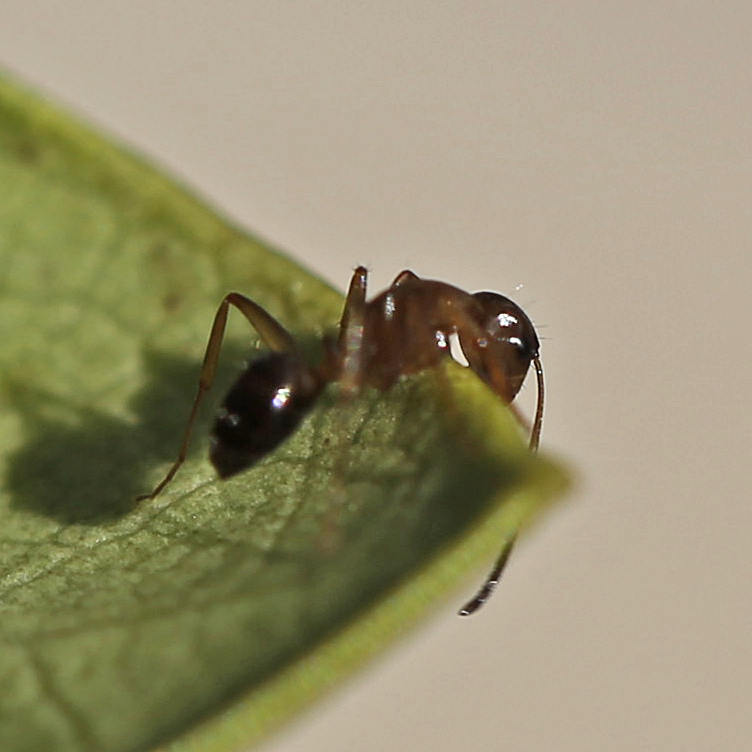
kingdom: Animalia
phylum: Arthropoda
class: Insecta
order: Hymenoptera
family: Formicidae
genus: Camponotus
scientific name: Camponotus nearcticus
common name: Smaller carpenter ant
